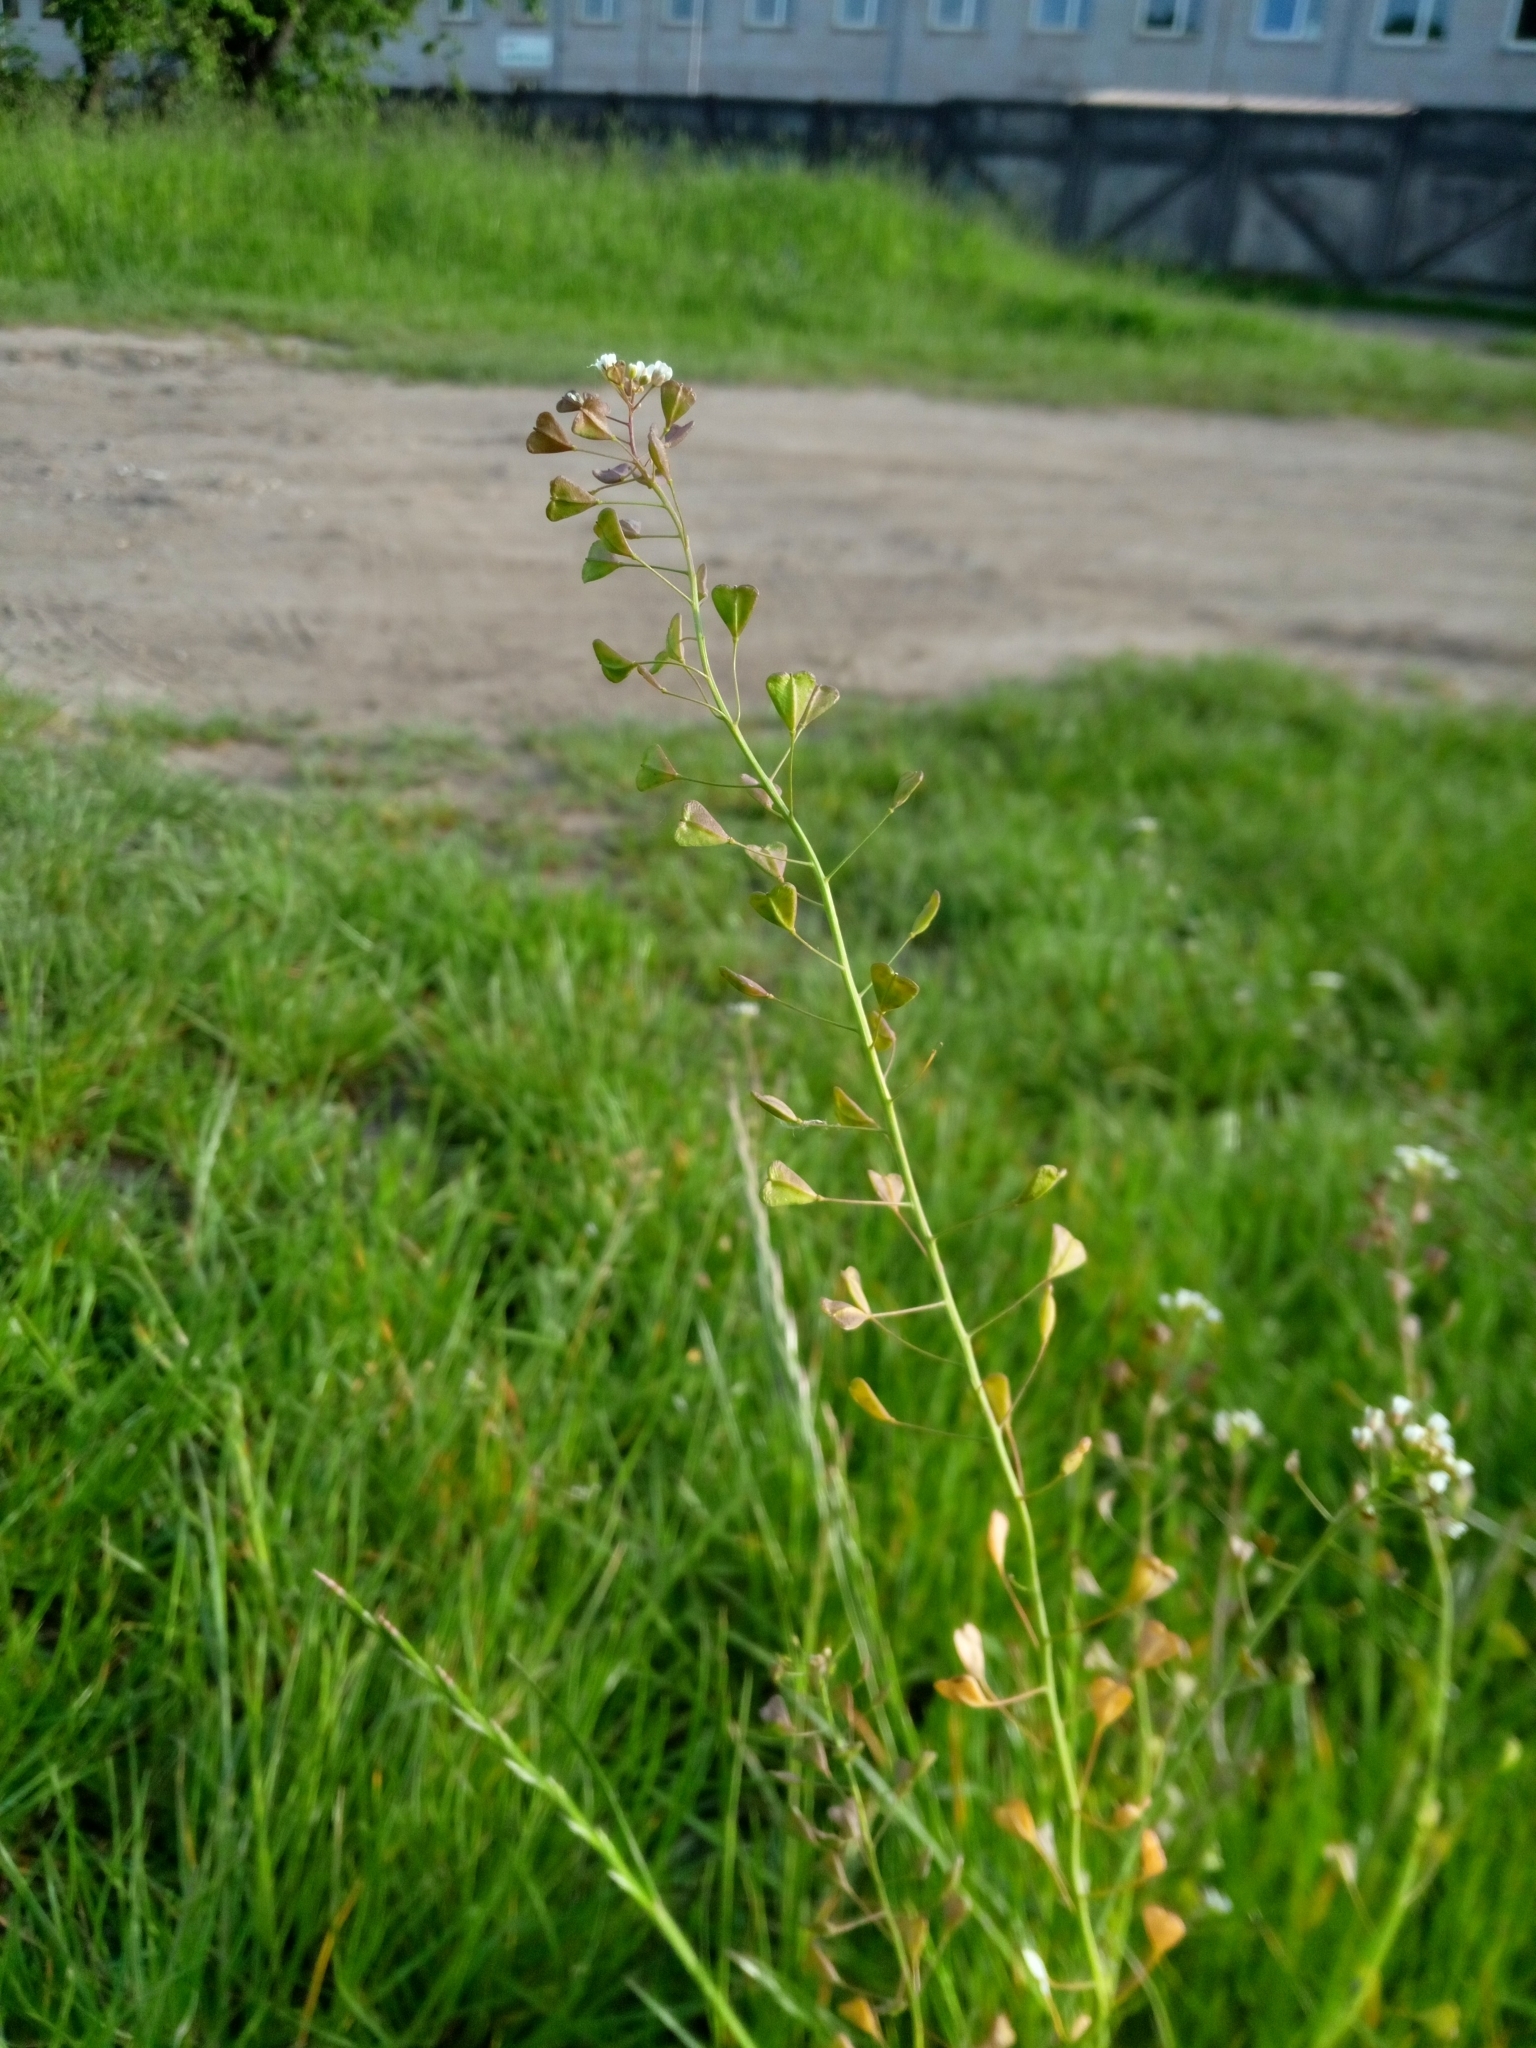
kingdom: Plantae
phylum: Tracheophyta
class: Magnoliopsida
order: Brassicales
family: Brassicaceae
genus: Capsella
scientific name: Capsella bursa-pastoris
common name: Shepherd's purse
